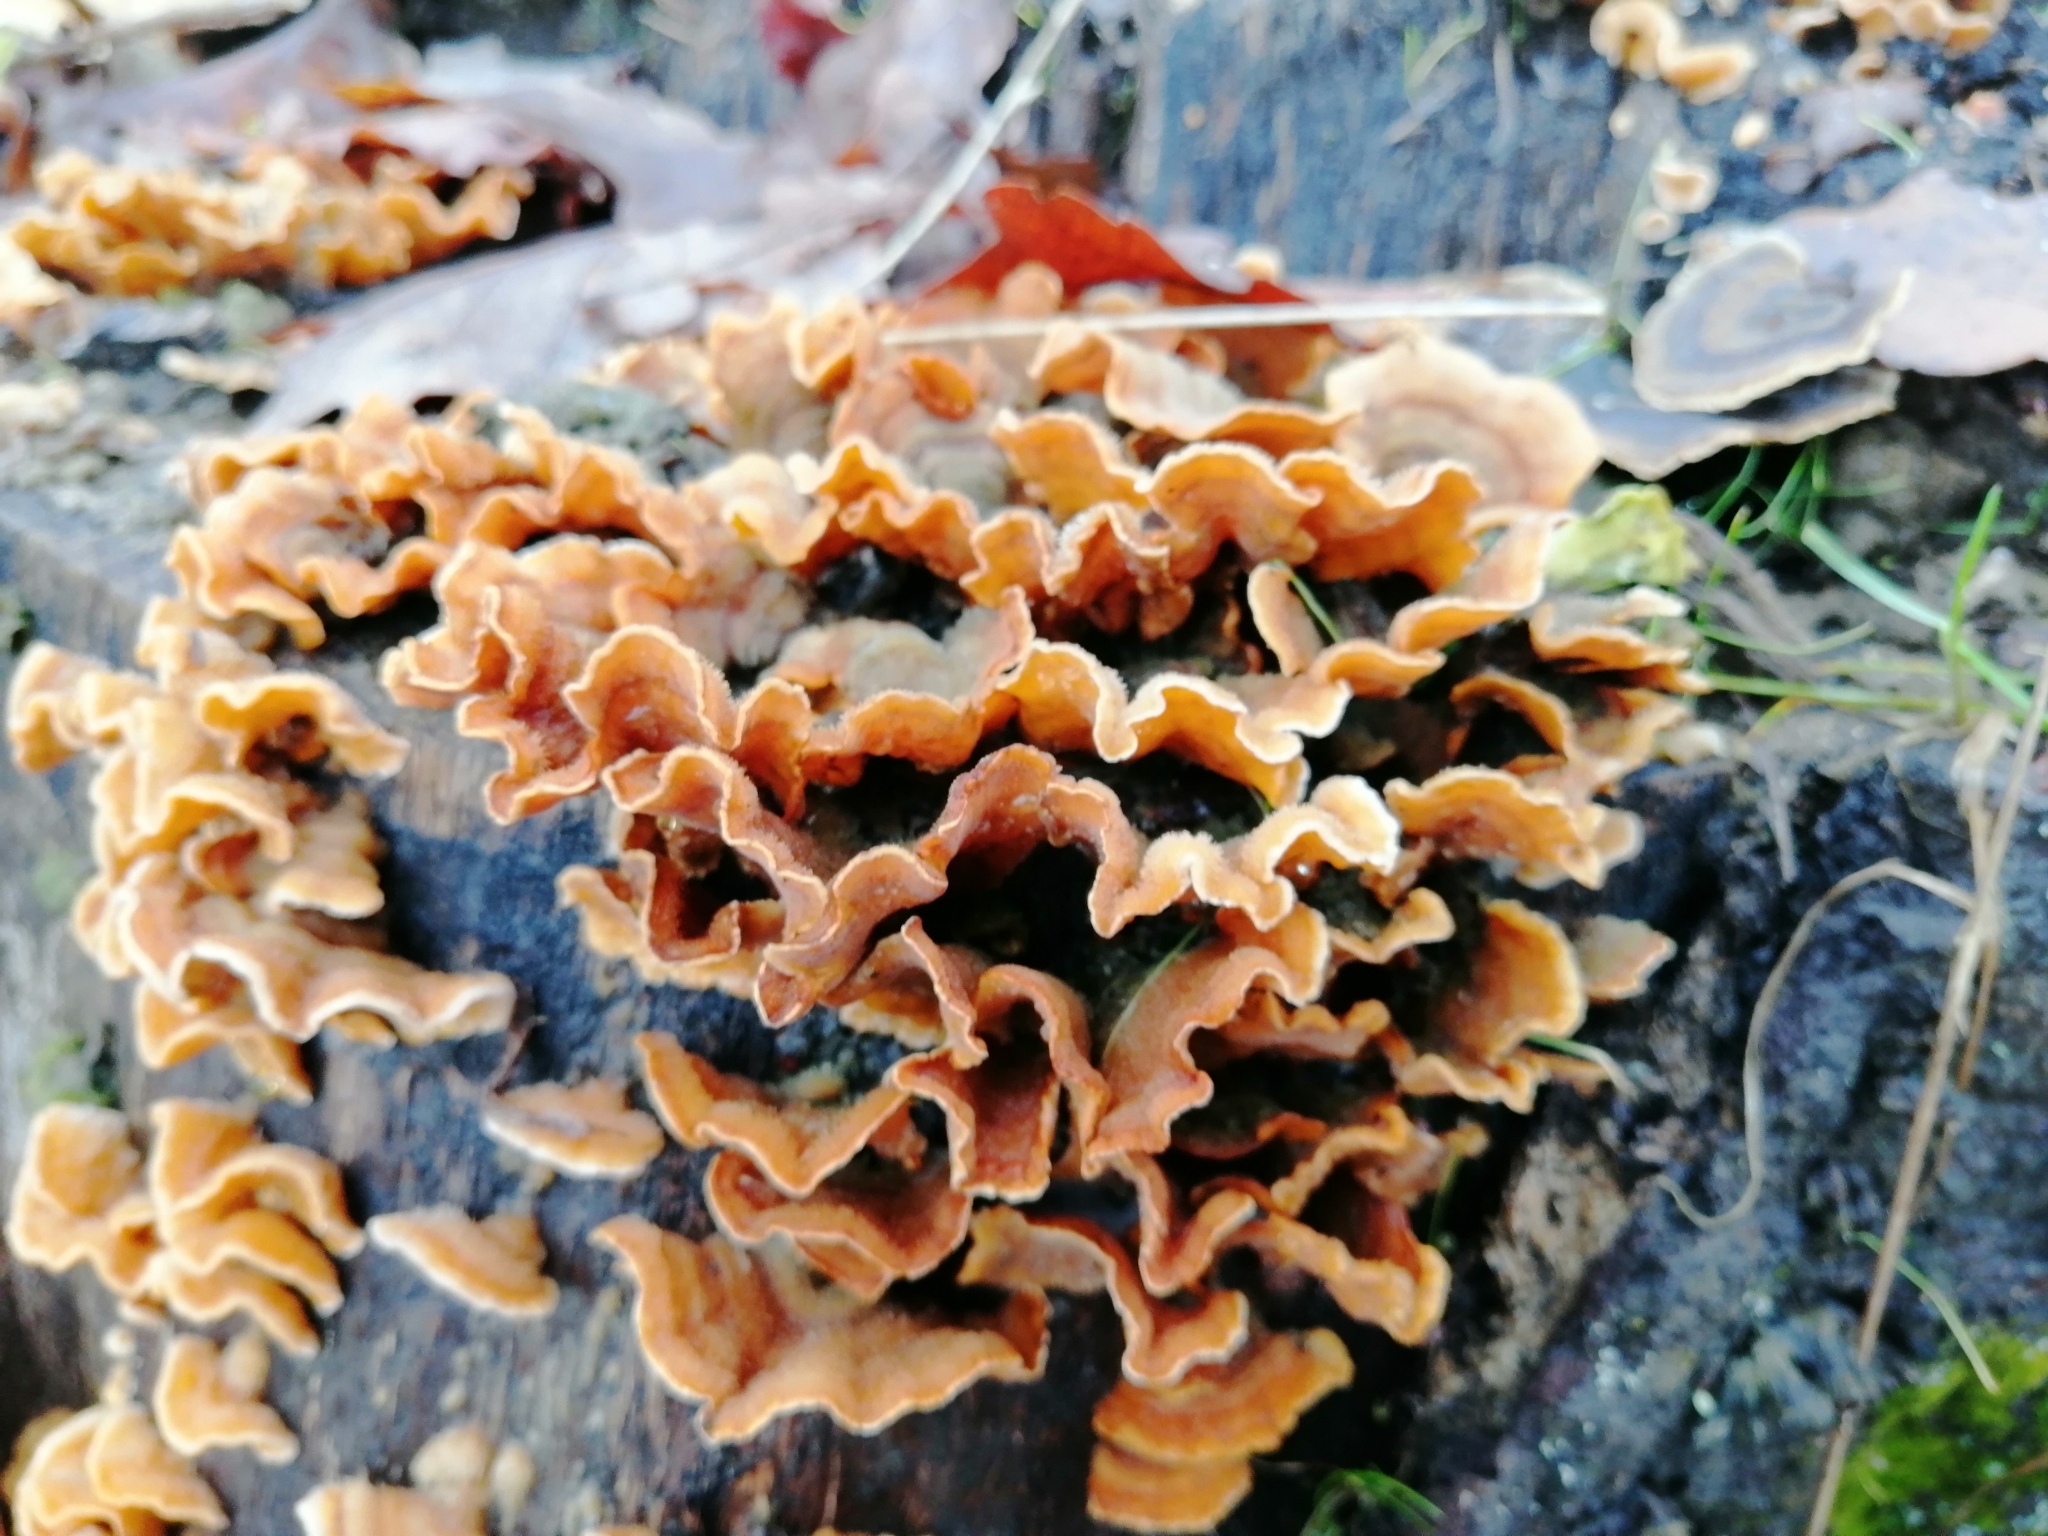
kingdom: Fungi
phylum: Basidiomycota
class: Agaricomycetes
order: Russulales
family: Stereaceae
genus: Stereum
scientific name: Stereum hirsutum
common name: Hairy curtain crust
